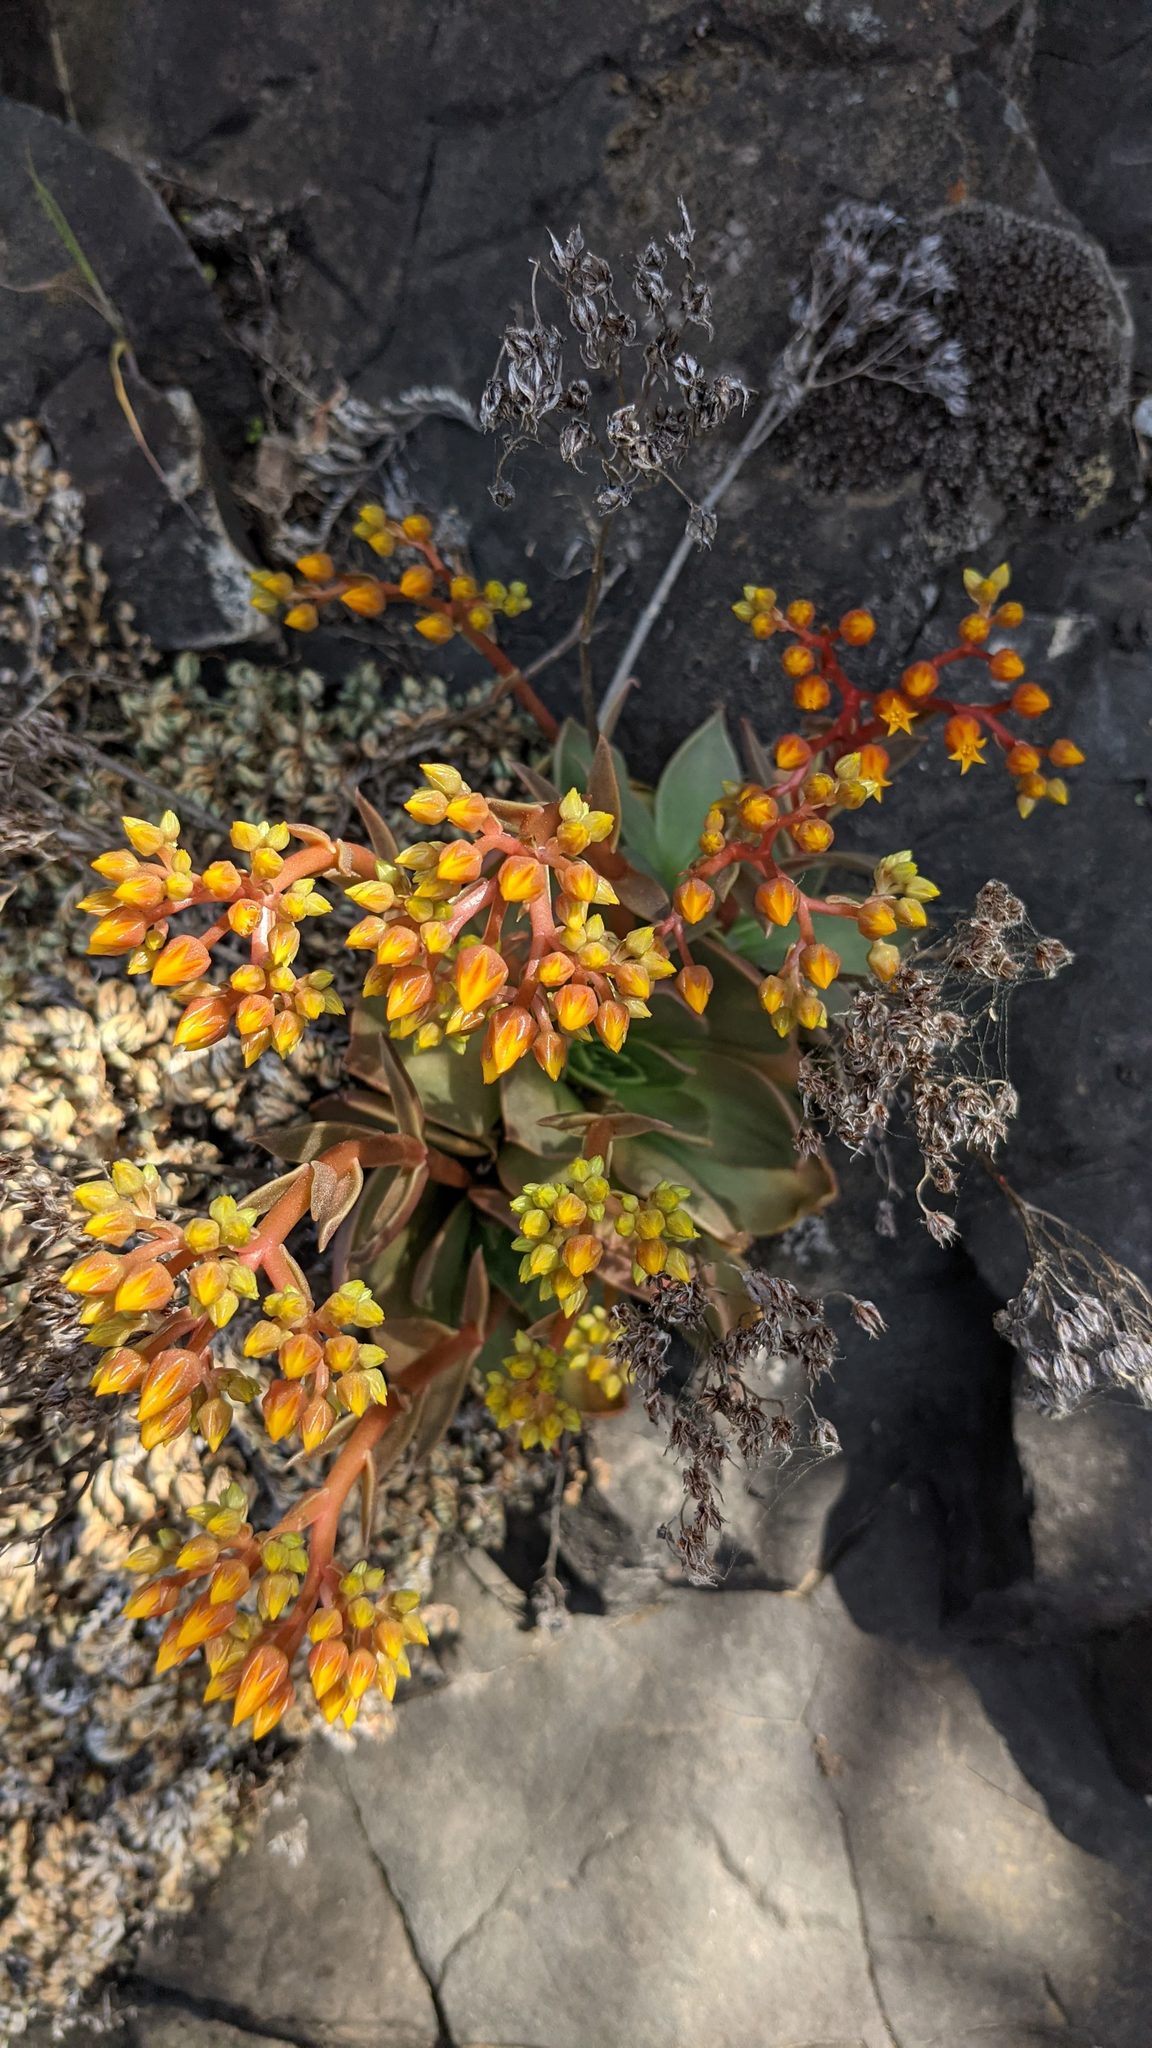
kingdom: Plantae
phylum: Tracheophyta
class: Magnoliopsida
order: Saxifragales
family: Crassulaceae
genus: Dudleya
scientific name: Dudleya cymosa
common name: Canyon dudleya
